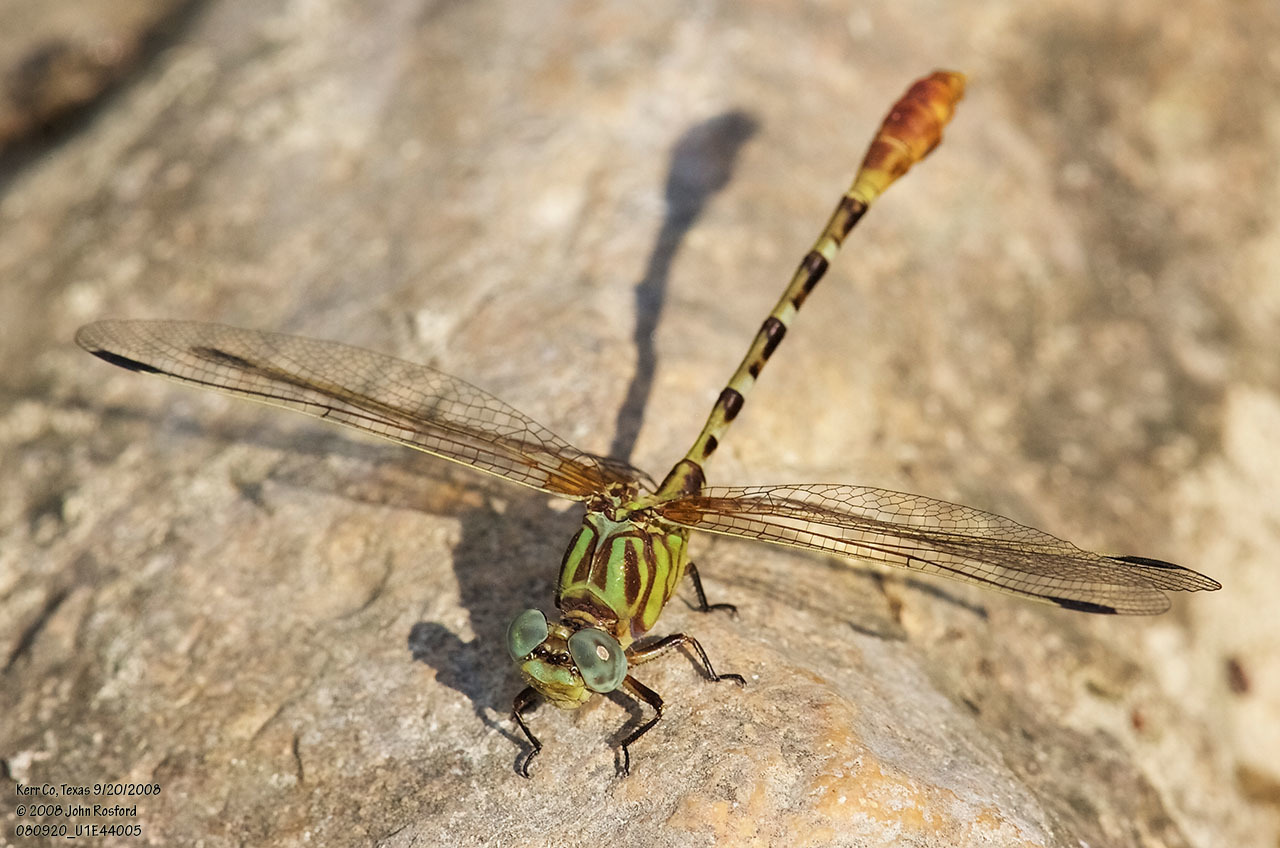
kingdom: Animalia
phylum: Arthropoda
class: Insecta
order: Odonata
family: Gomphidae
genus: Erpetogomphus
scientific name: Erpetogomphus designatus
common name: Eastern ringtail
